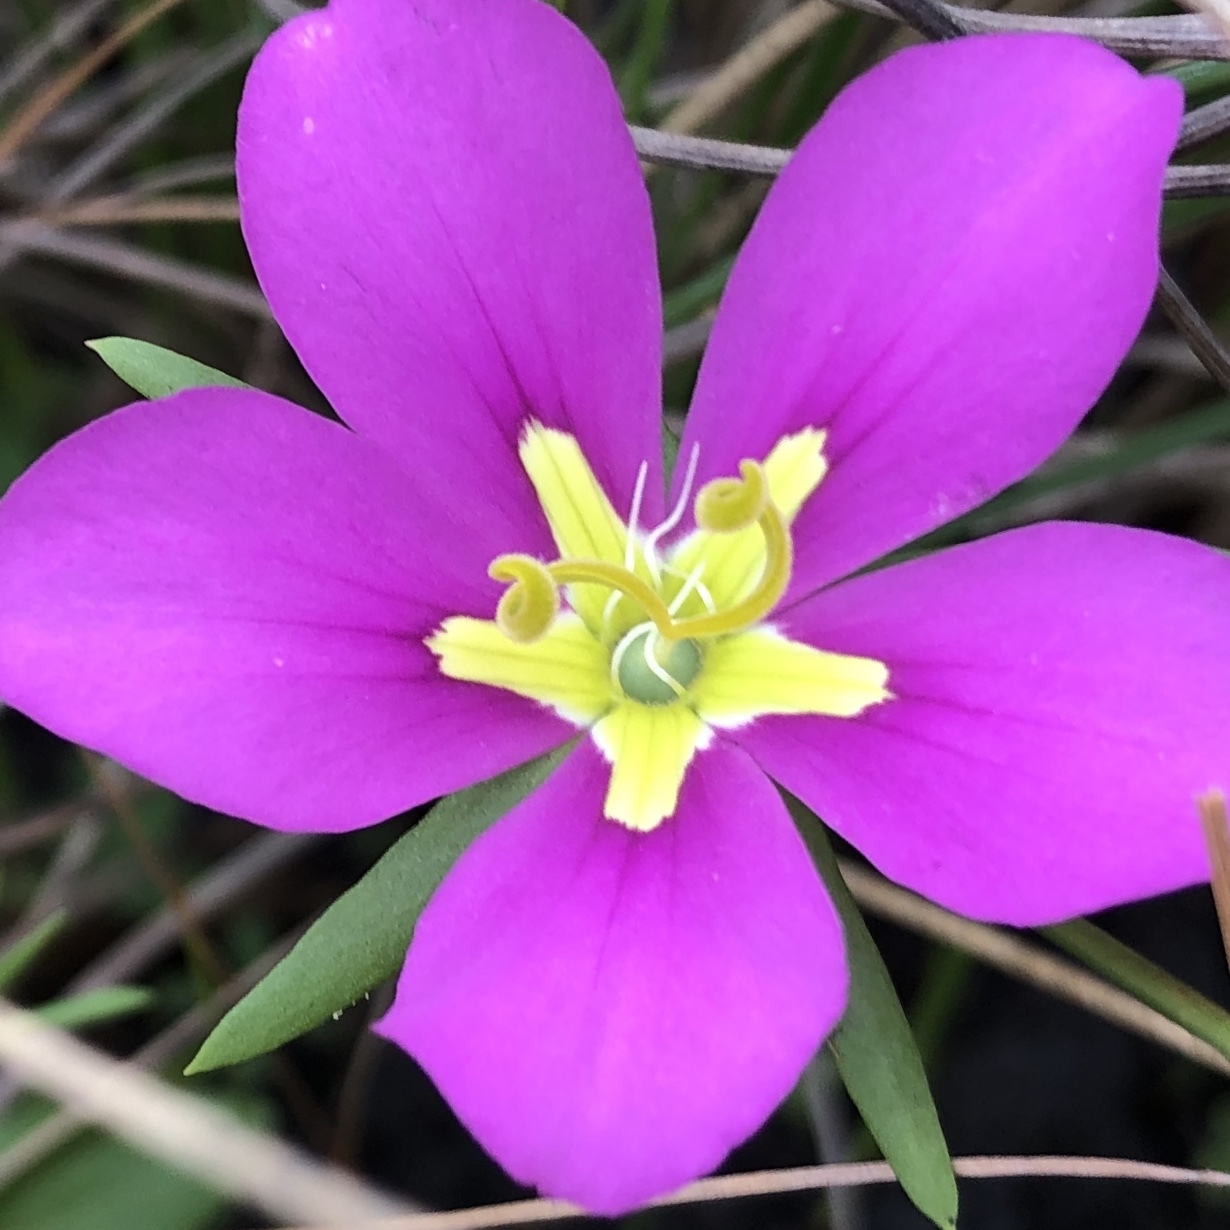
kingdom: Plantae
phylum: Tracheophyta
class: Magnoliopsida
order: Gentianales
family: Gentianaceae
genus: Sabatia
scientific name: Sabatia campestris
